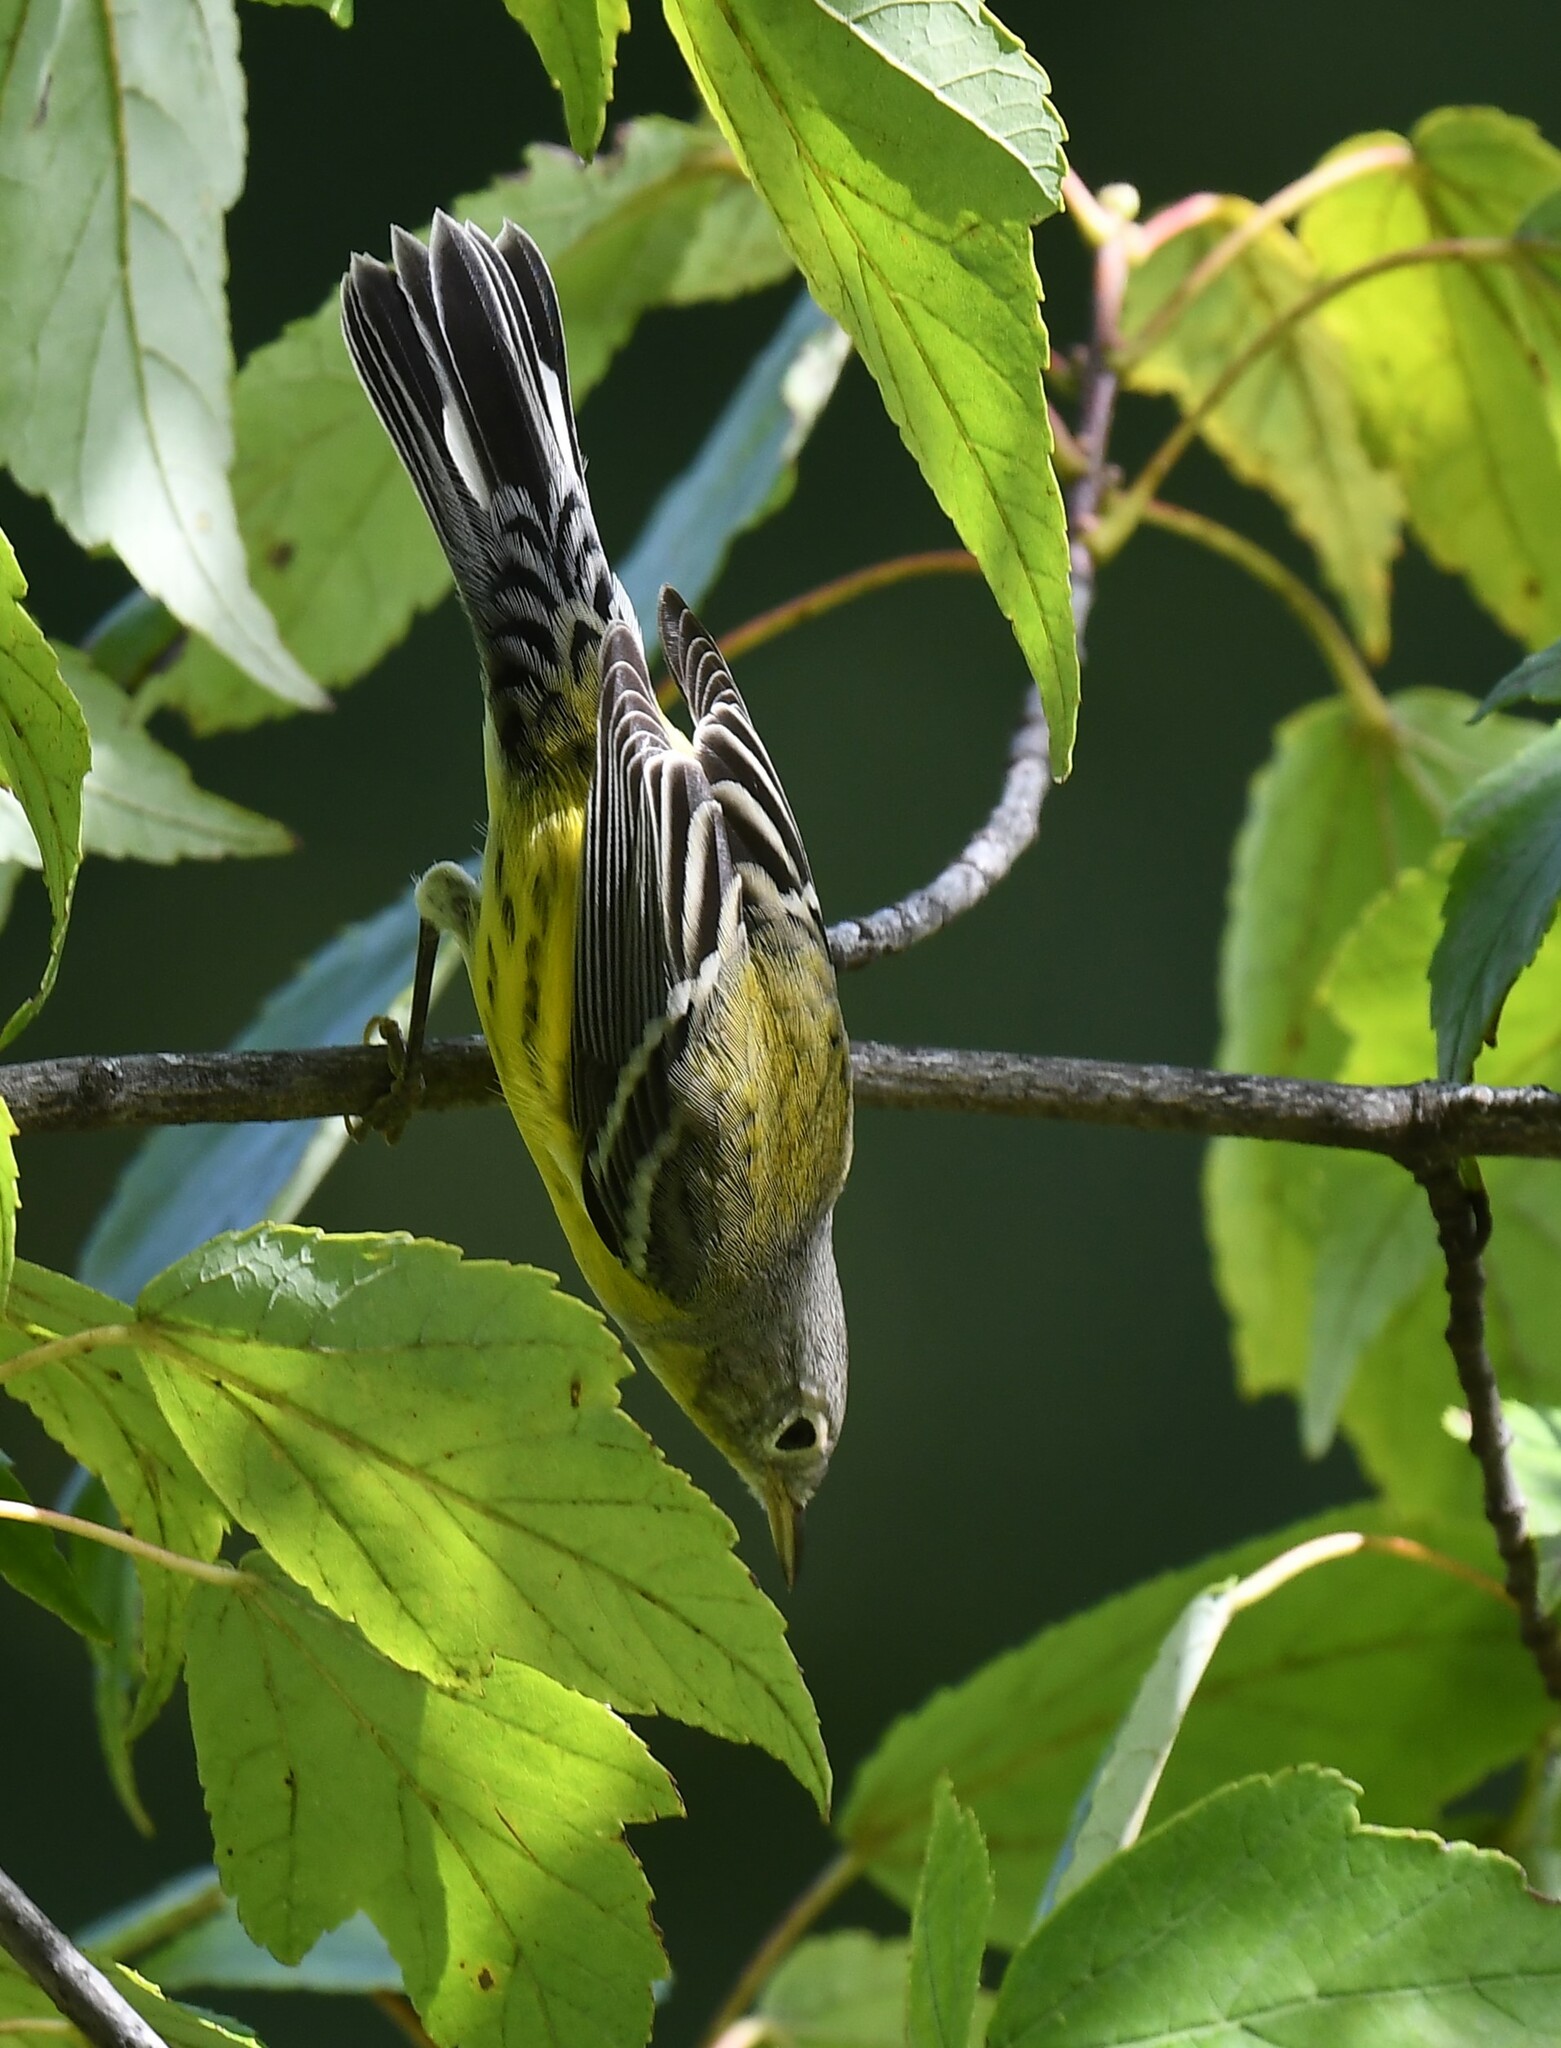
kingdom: Animalia
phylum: Chordata
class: Aves
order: Passeriformes
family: Parulidae
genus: Setophaga
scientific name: Setophaga magnolia
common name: Magnolia warbler
